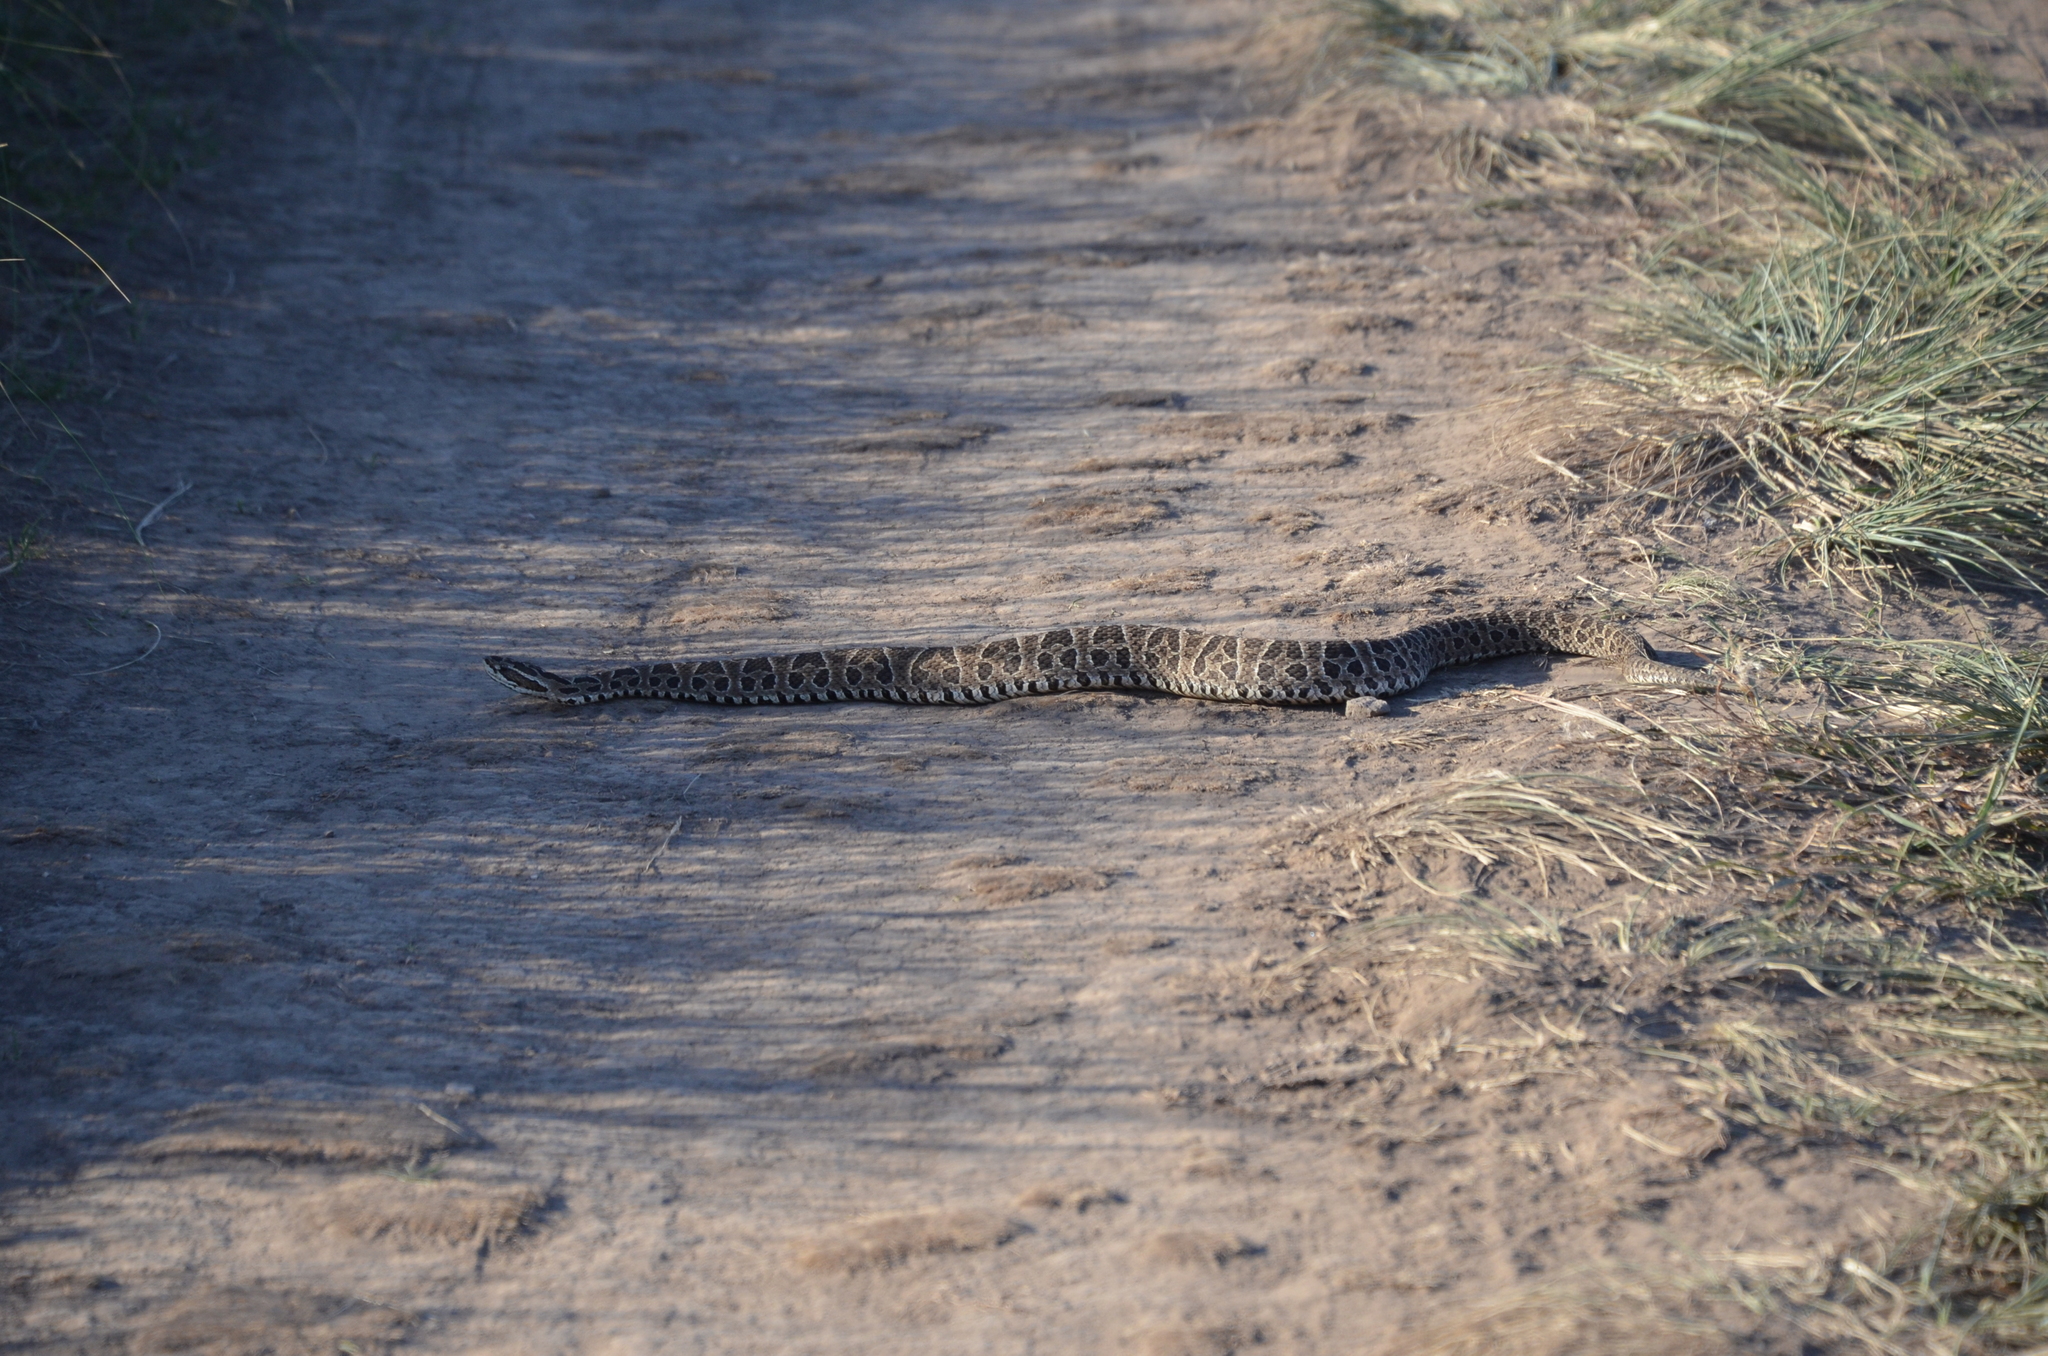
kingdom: Animalia
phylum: Chordata
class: Squamata
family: Viperidae
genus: Bothrops
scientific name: Bothrops alternatus
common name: Urutu
